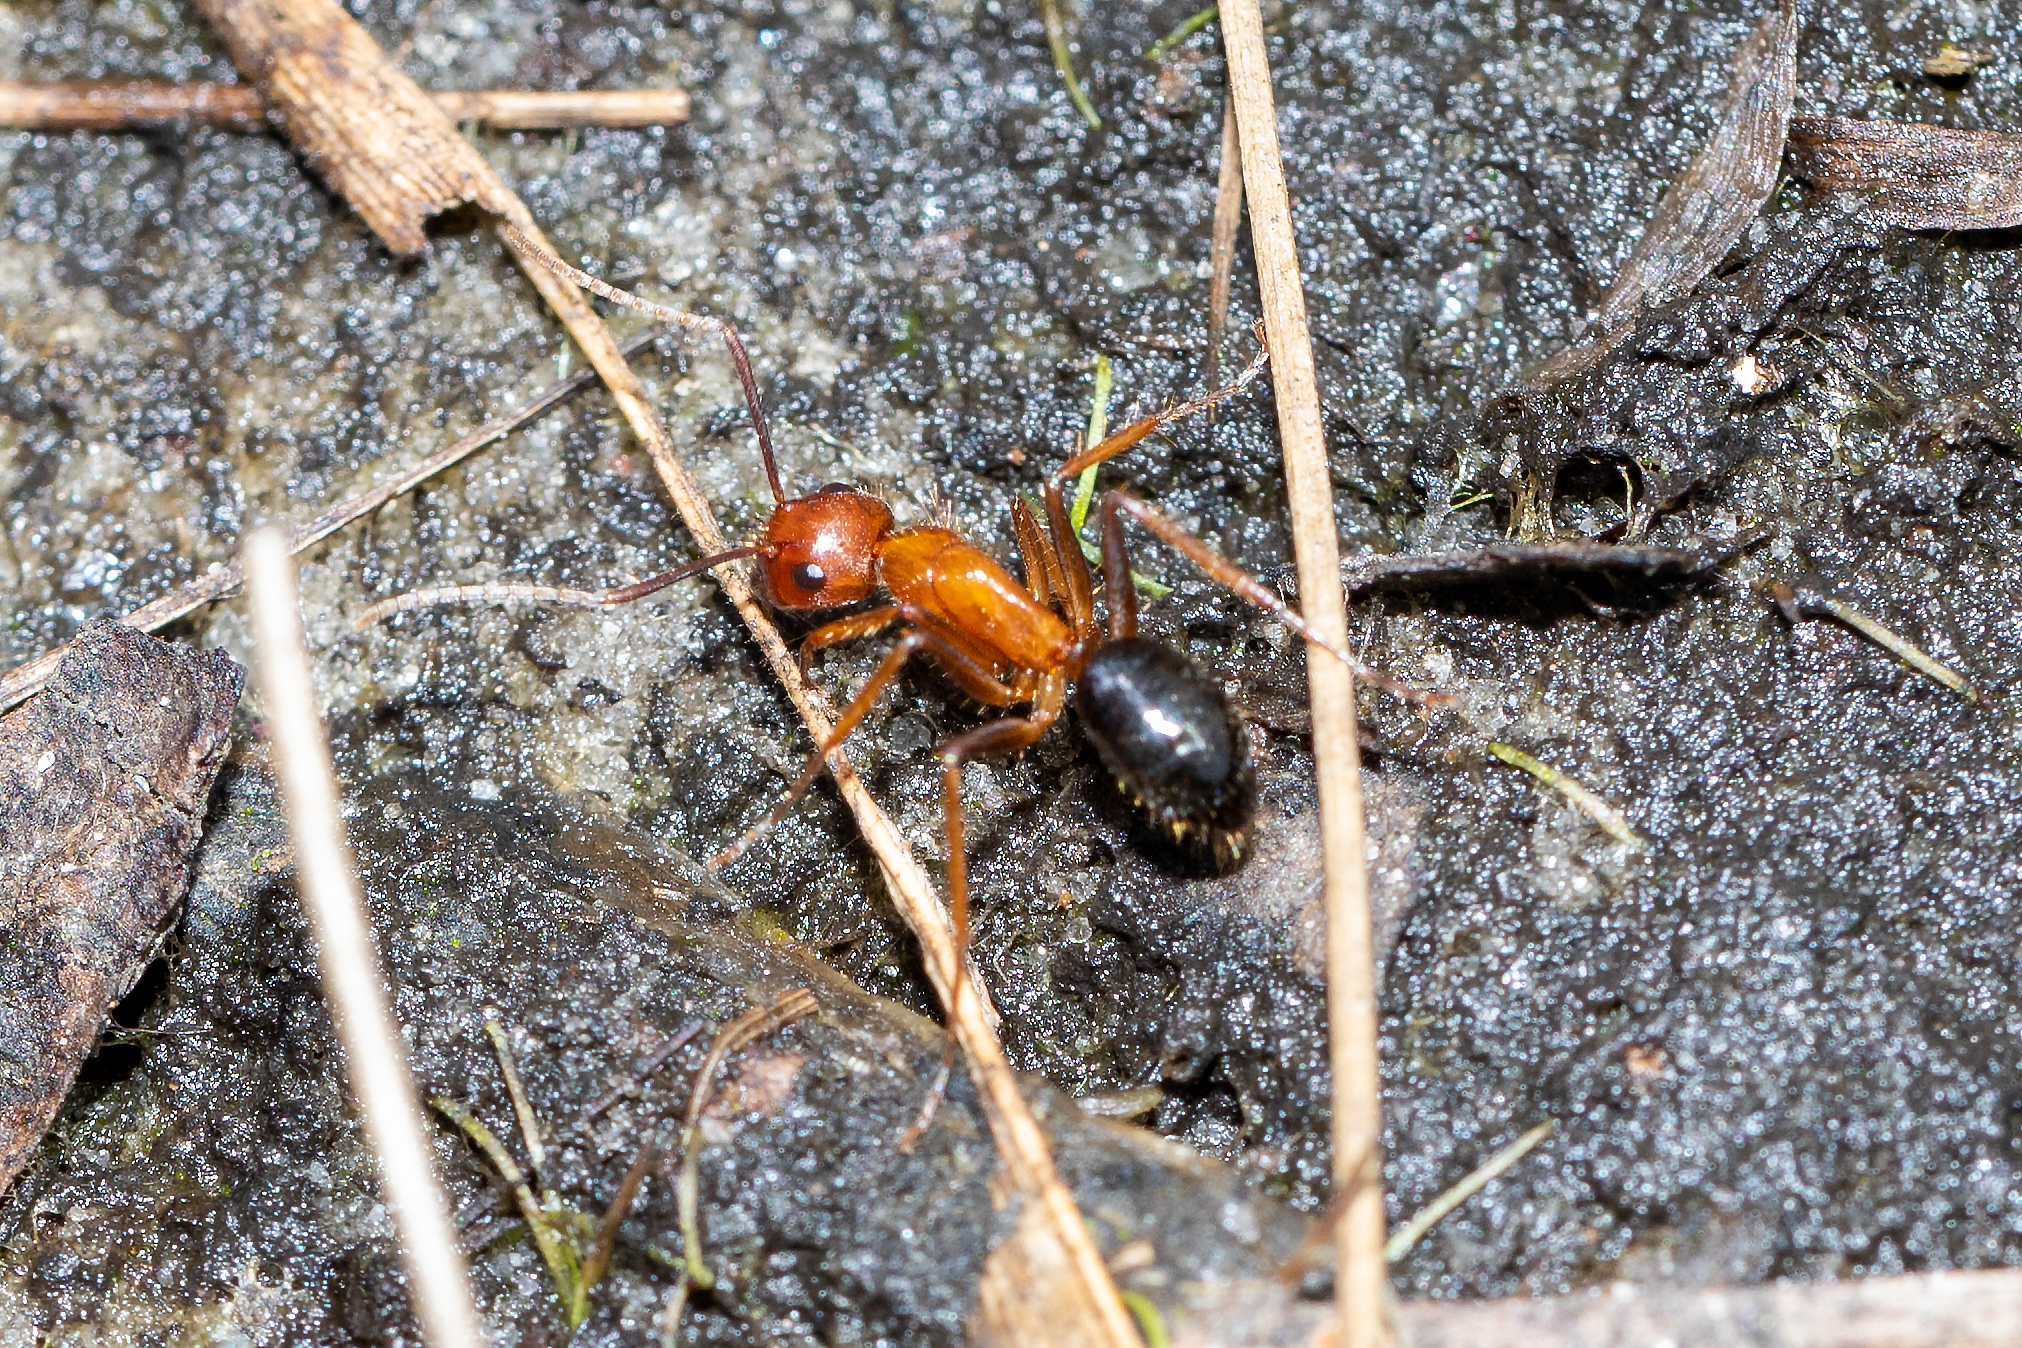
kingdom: Animalia
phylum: Arthropoda
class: Insecta
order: Hymenoptera
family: Formicidae
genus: Camponotus
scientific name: Camponotus floridanus
